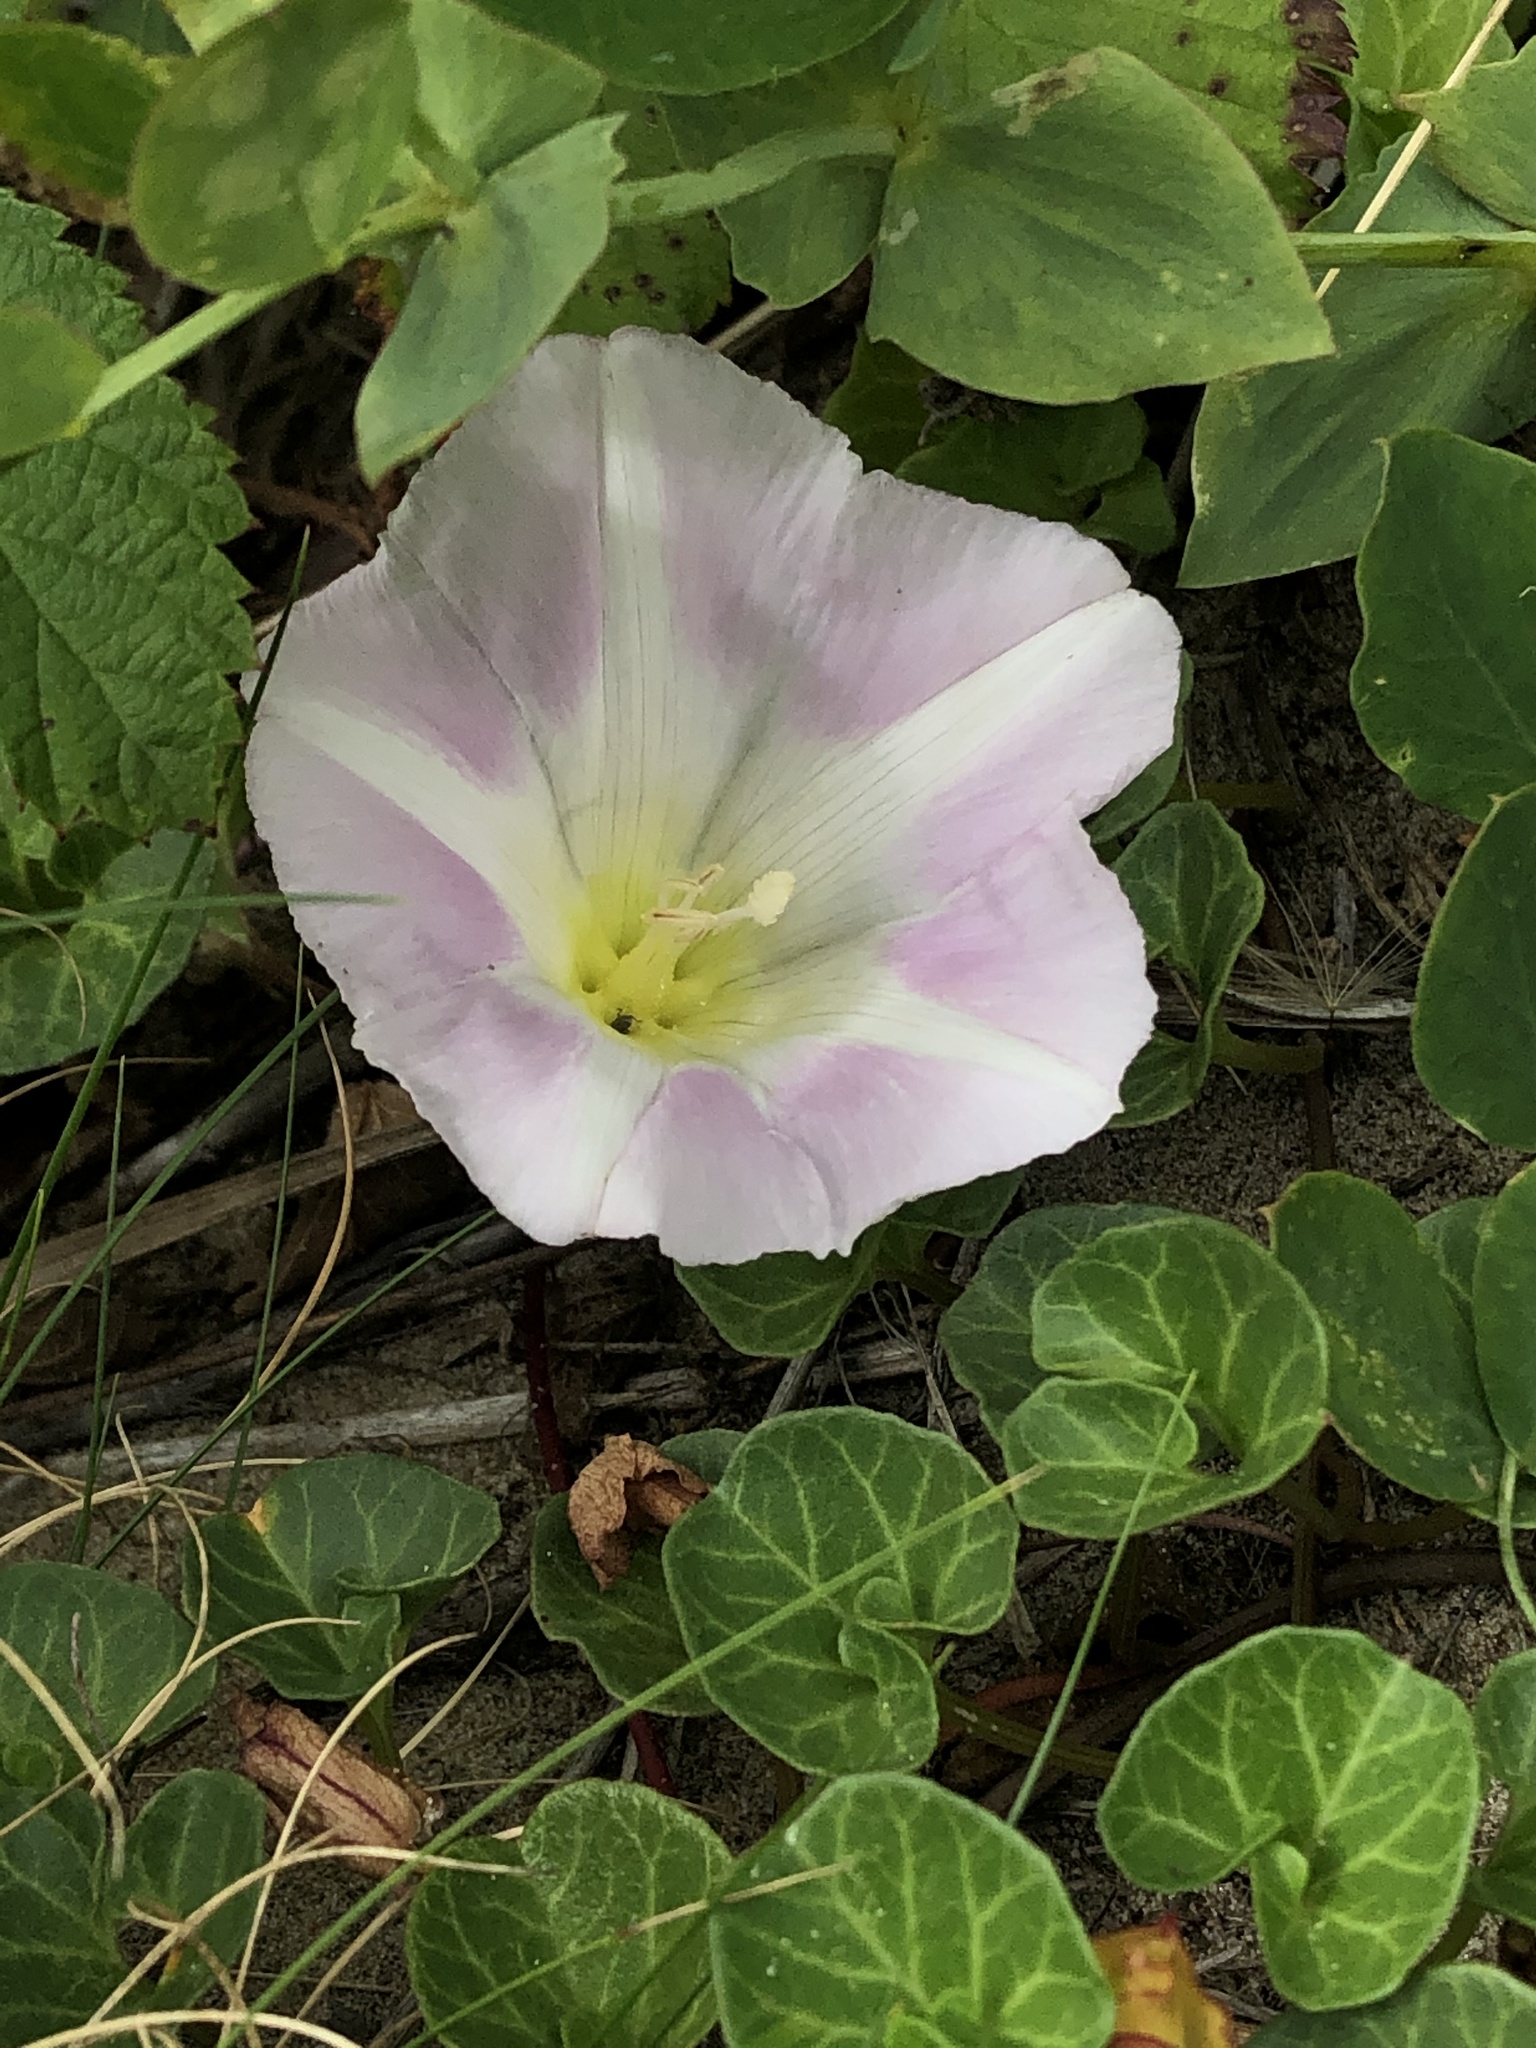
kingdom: Plantae
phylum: Tracheophyta
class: Magnoliopsida
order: Solanales
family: Convolvulaceae
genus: Calystegia
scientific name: Calystegia soldanella
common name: Sea bindweed
